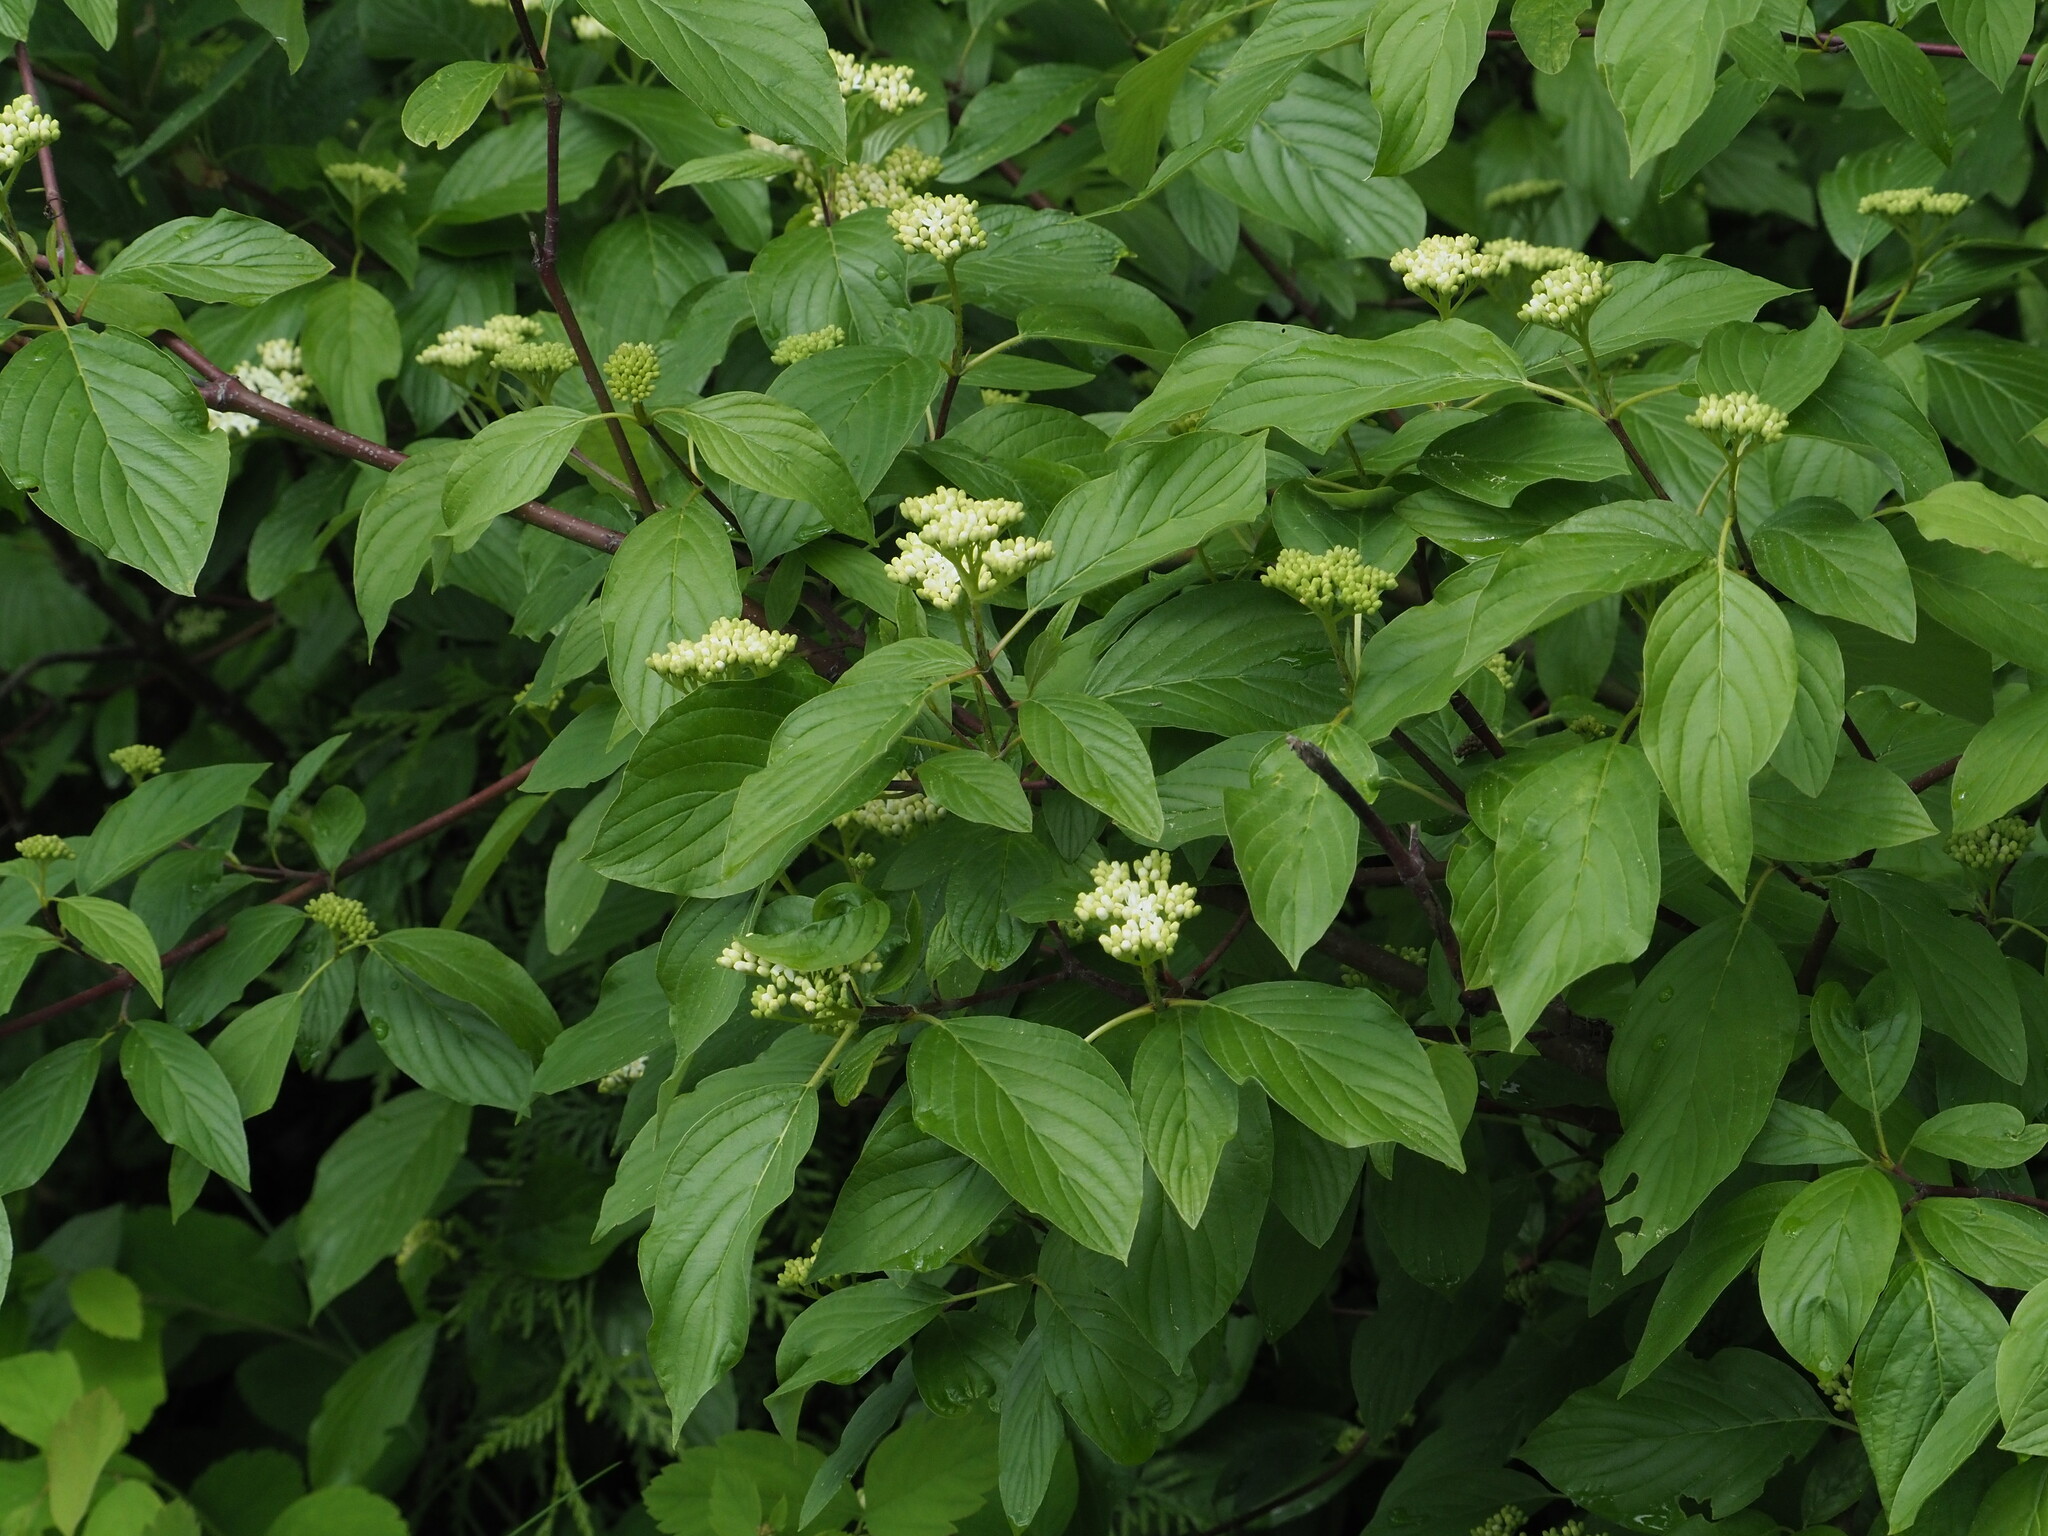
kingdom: Plantae
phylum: Tracheophyta
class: Magnoliopsida
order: Cornales
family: Cornaceae
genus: Cornus
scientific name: Cornus sericea
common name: Red-osier dogwood
